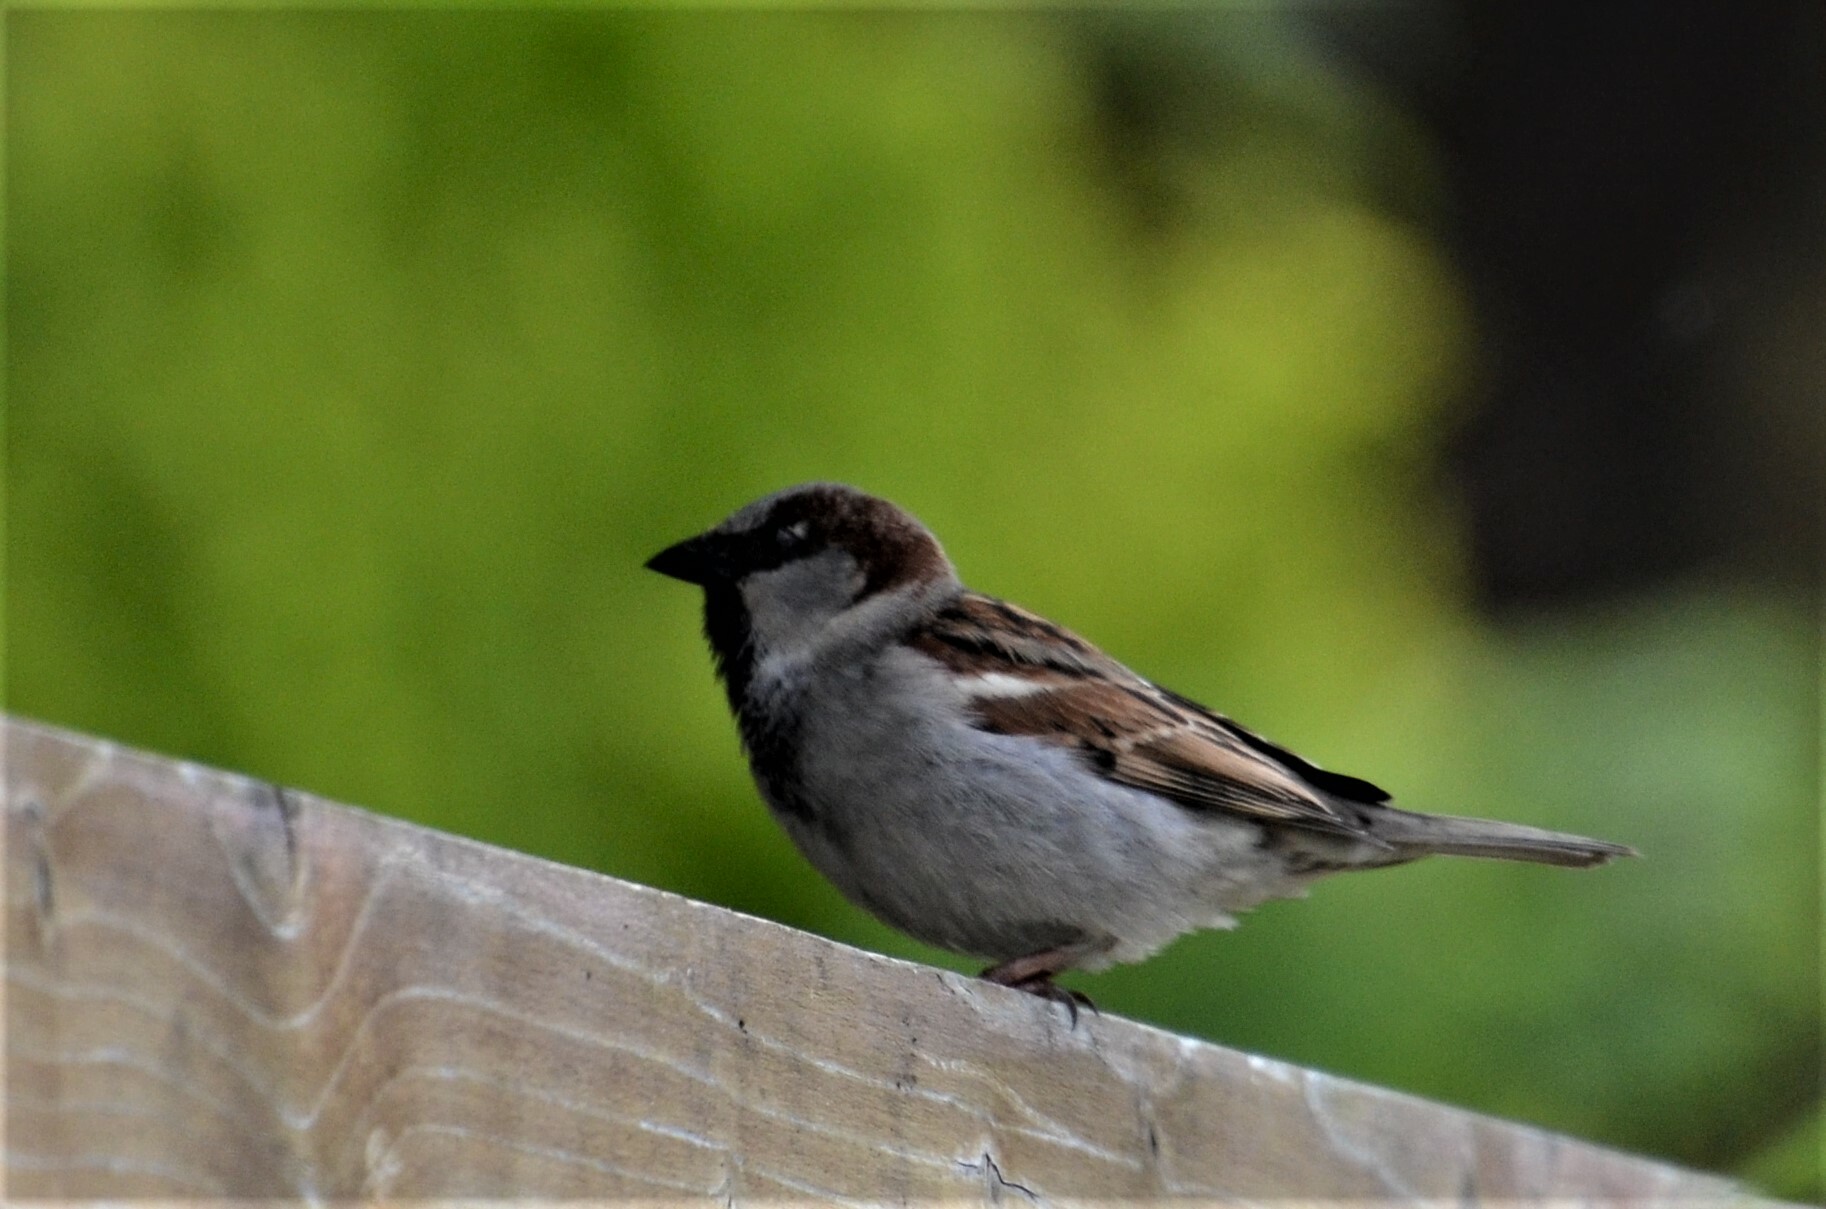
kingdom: Animalia
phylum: Chordata
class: Aves
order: Passeriformes
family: Passeridae
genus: Passer
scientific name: Passer domesticus
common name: House sparrow
